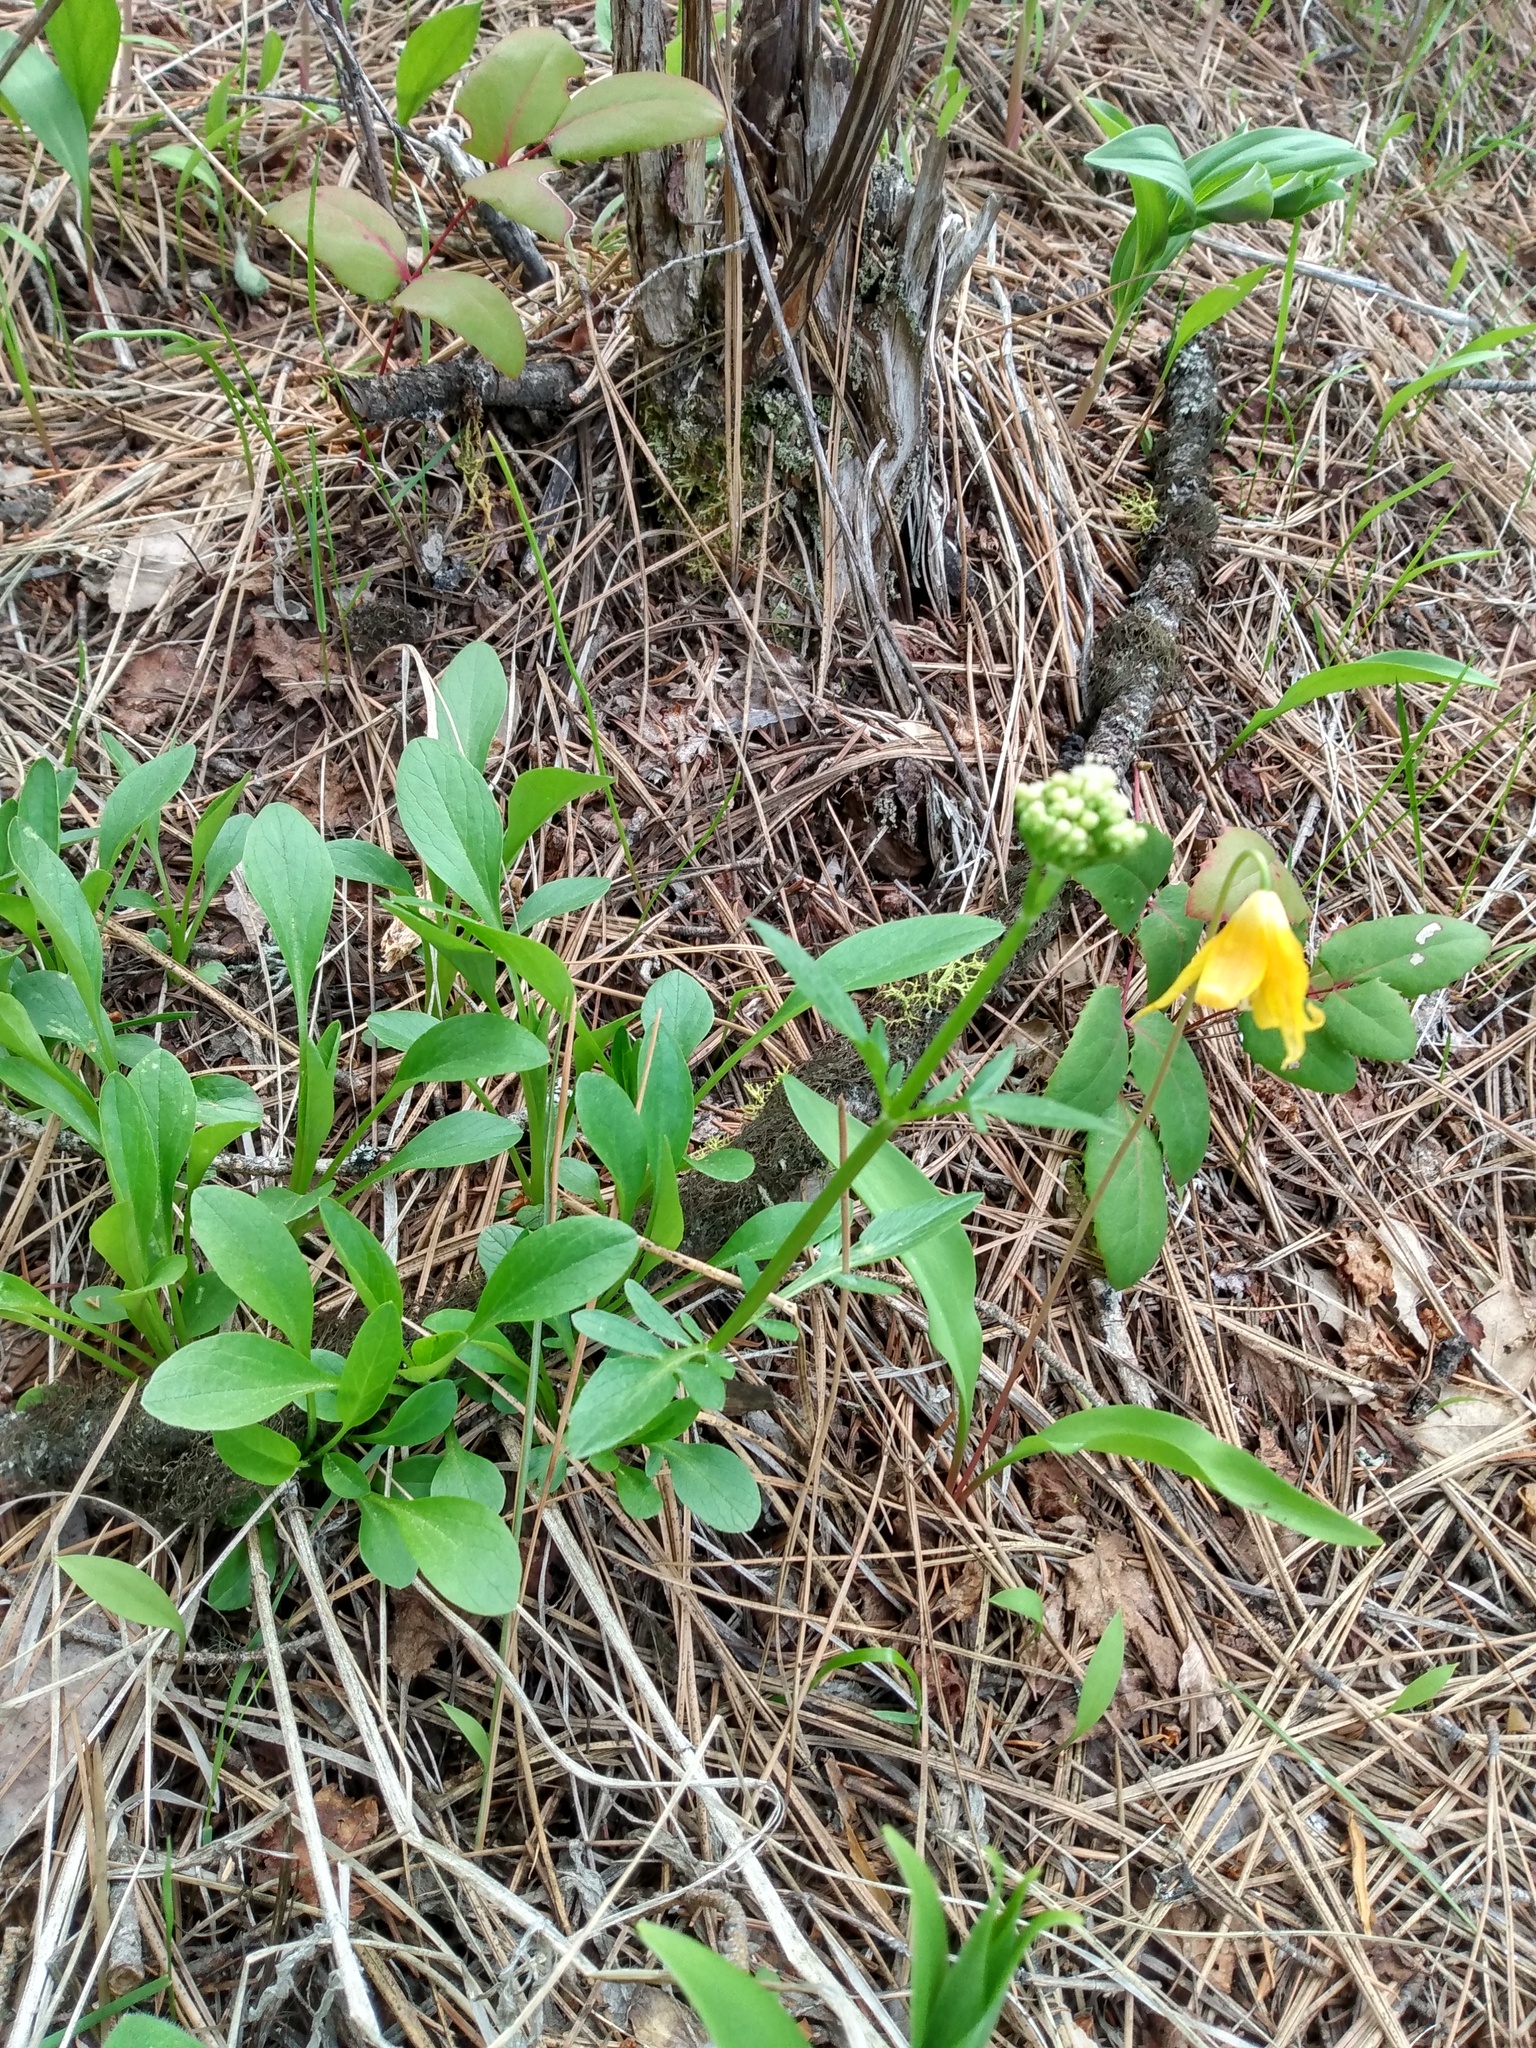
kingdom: Plantae
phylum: Tracheophyta
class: Liliopsida
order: Liliales
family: Liliaceae
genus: Erythronium
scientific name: Erythronium grandiflorum
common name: Avalanche-lily
